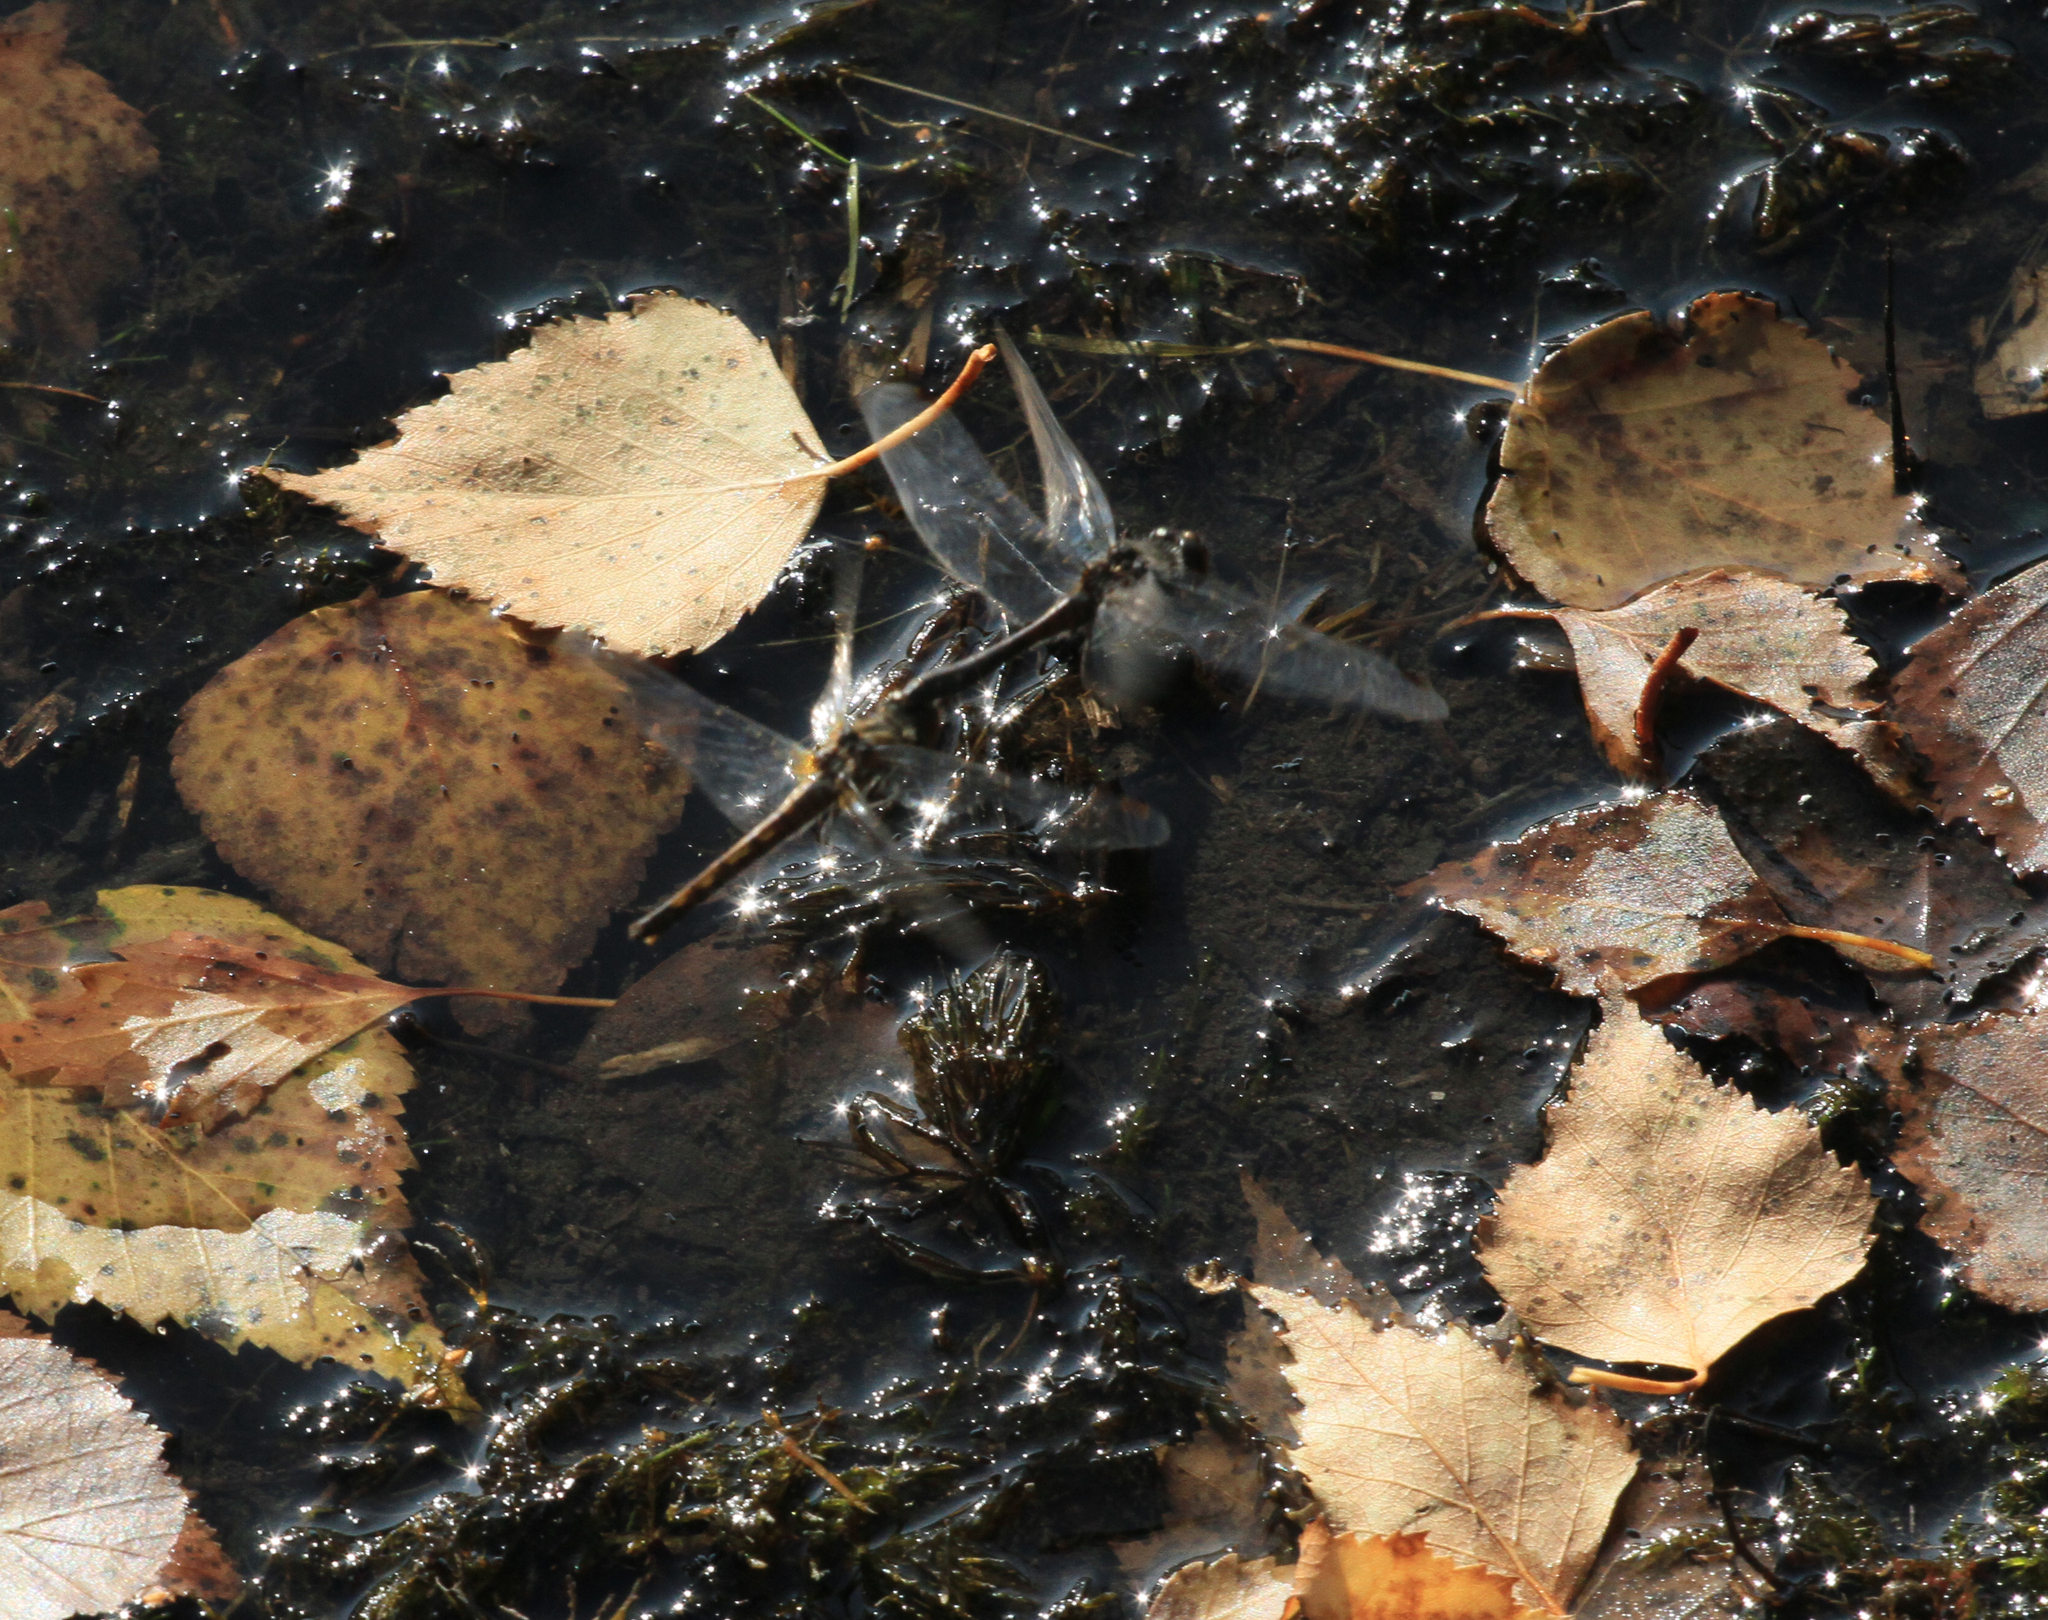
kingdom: Animalia
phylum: Arthropoda
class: Insecta
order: Odonata
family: Libellulidae
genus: Sympetrum
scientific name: Sympetrum danae
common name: Black darter
